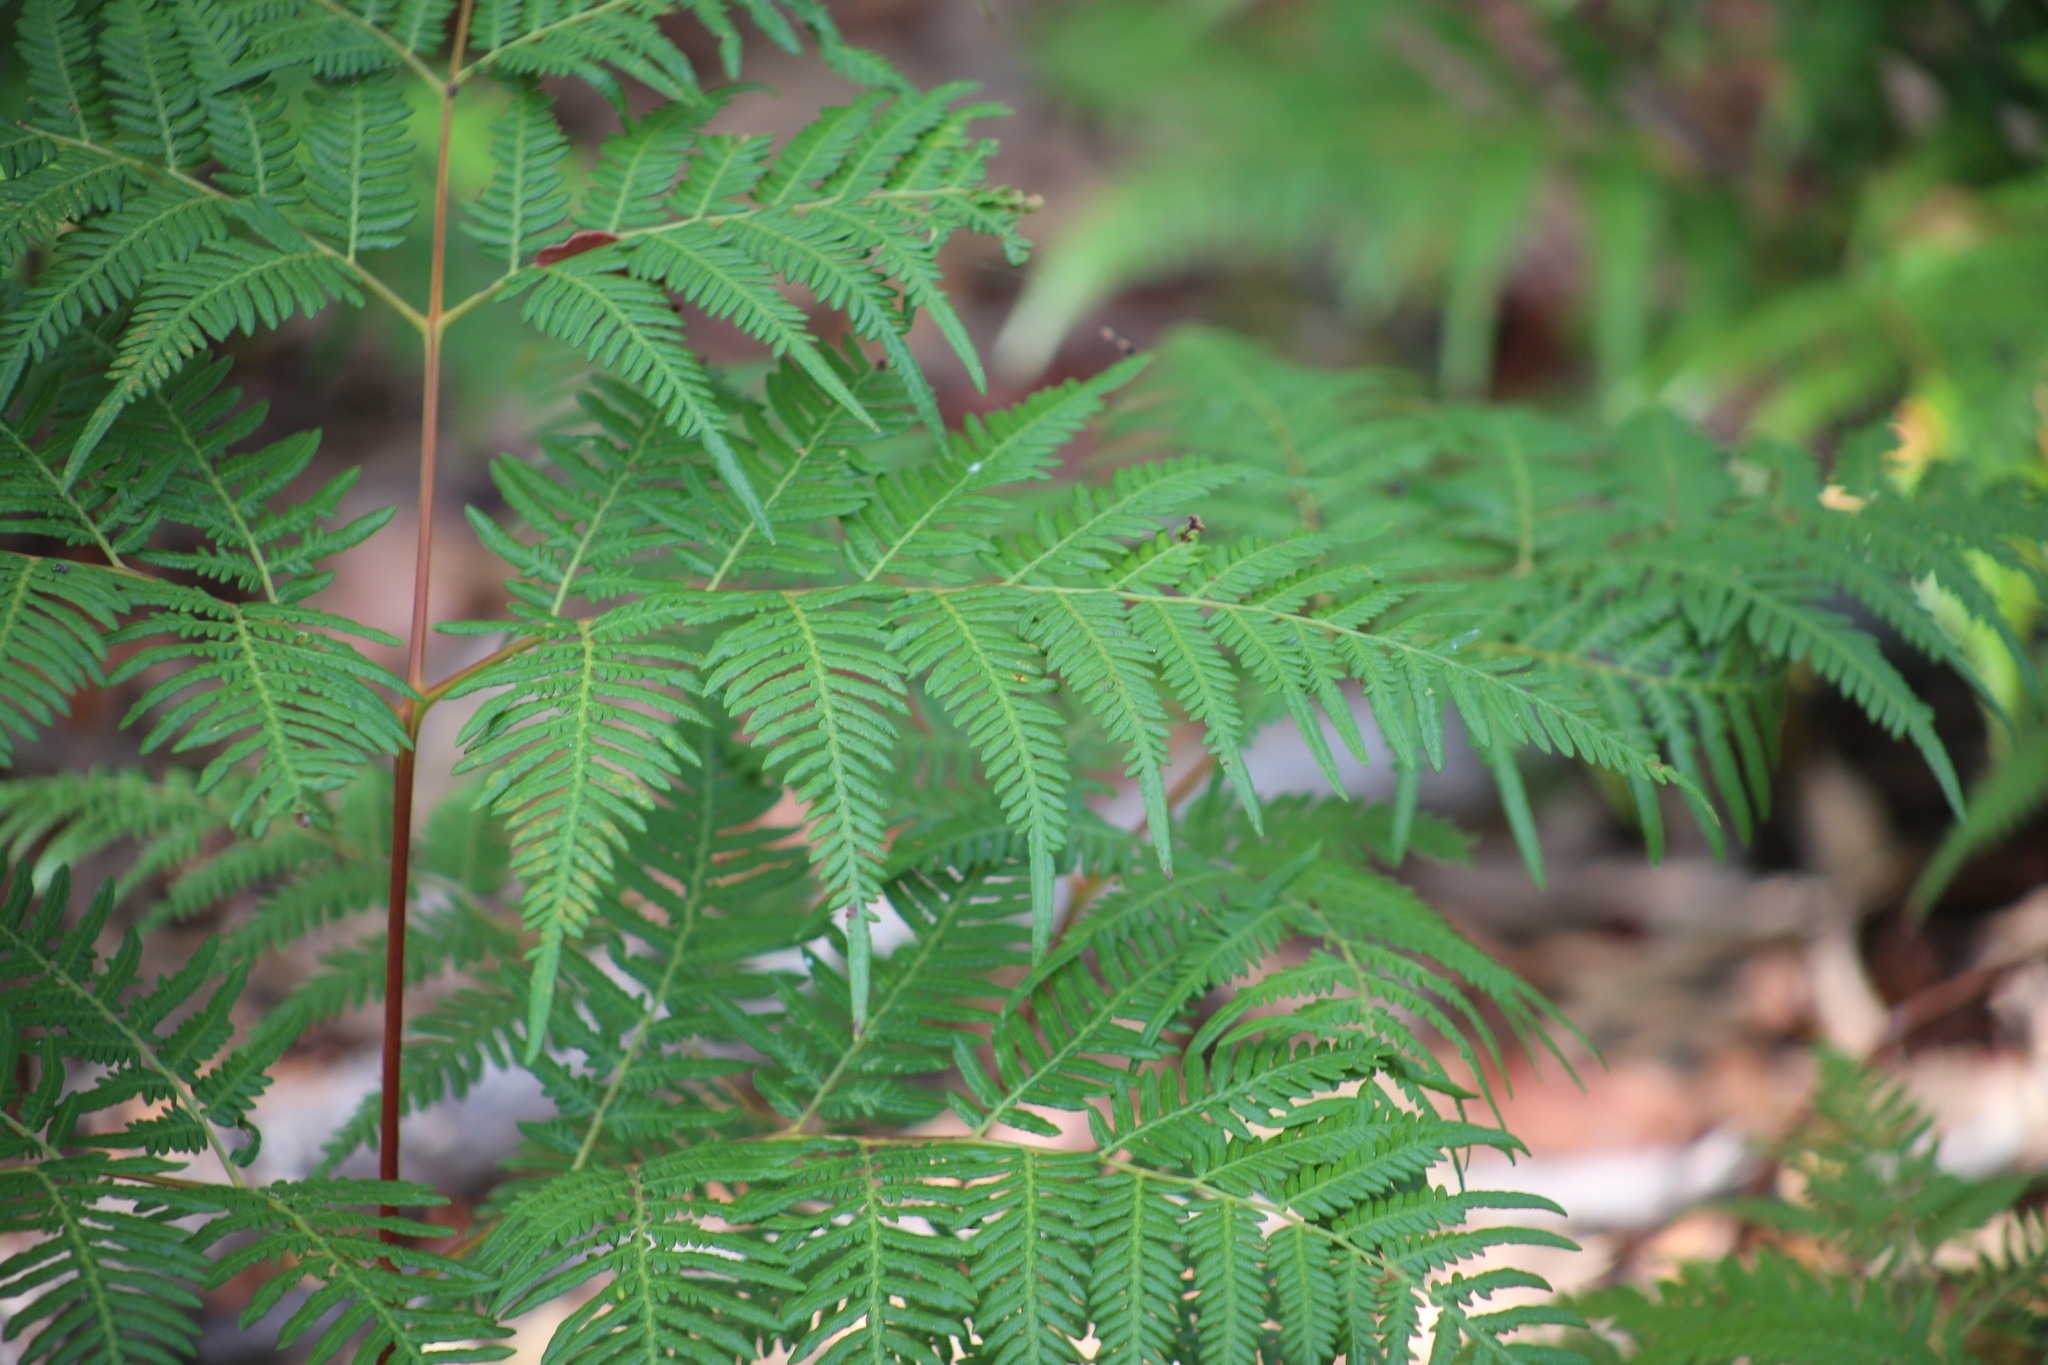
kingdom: Plantae
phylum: Tracheophyta
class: Polypodiopsida
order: Polypodiales
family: Dennstaedtiaceae
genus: Pteridium
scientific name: Pteridium esculentum
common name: Bracken fern
